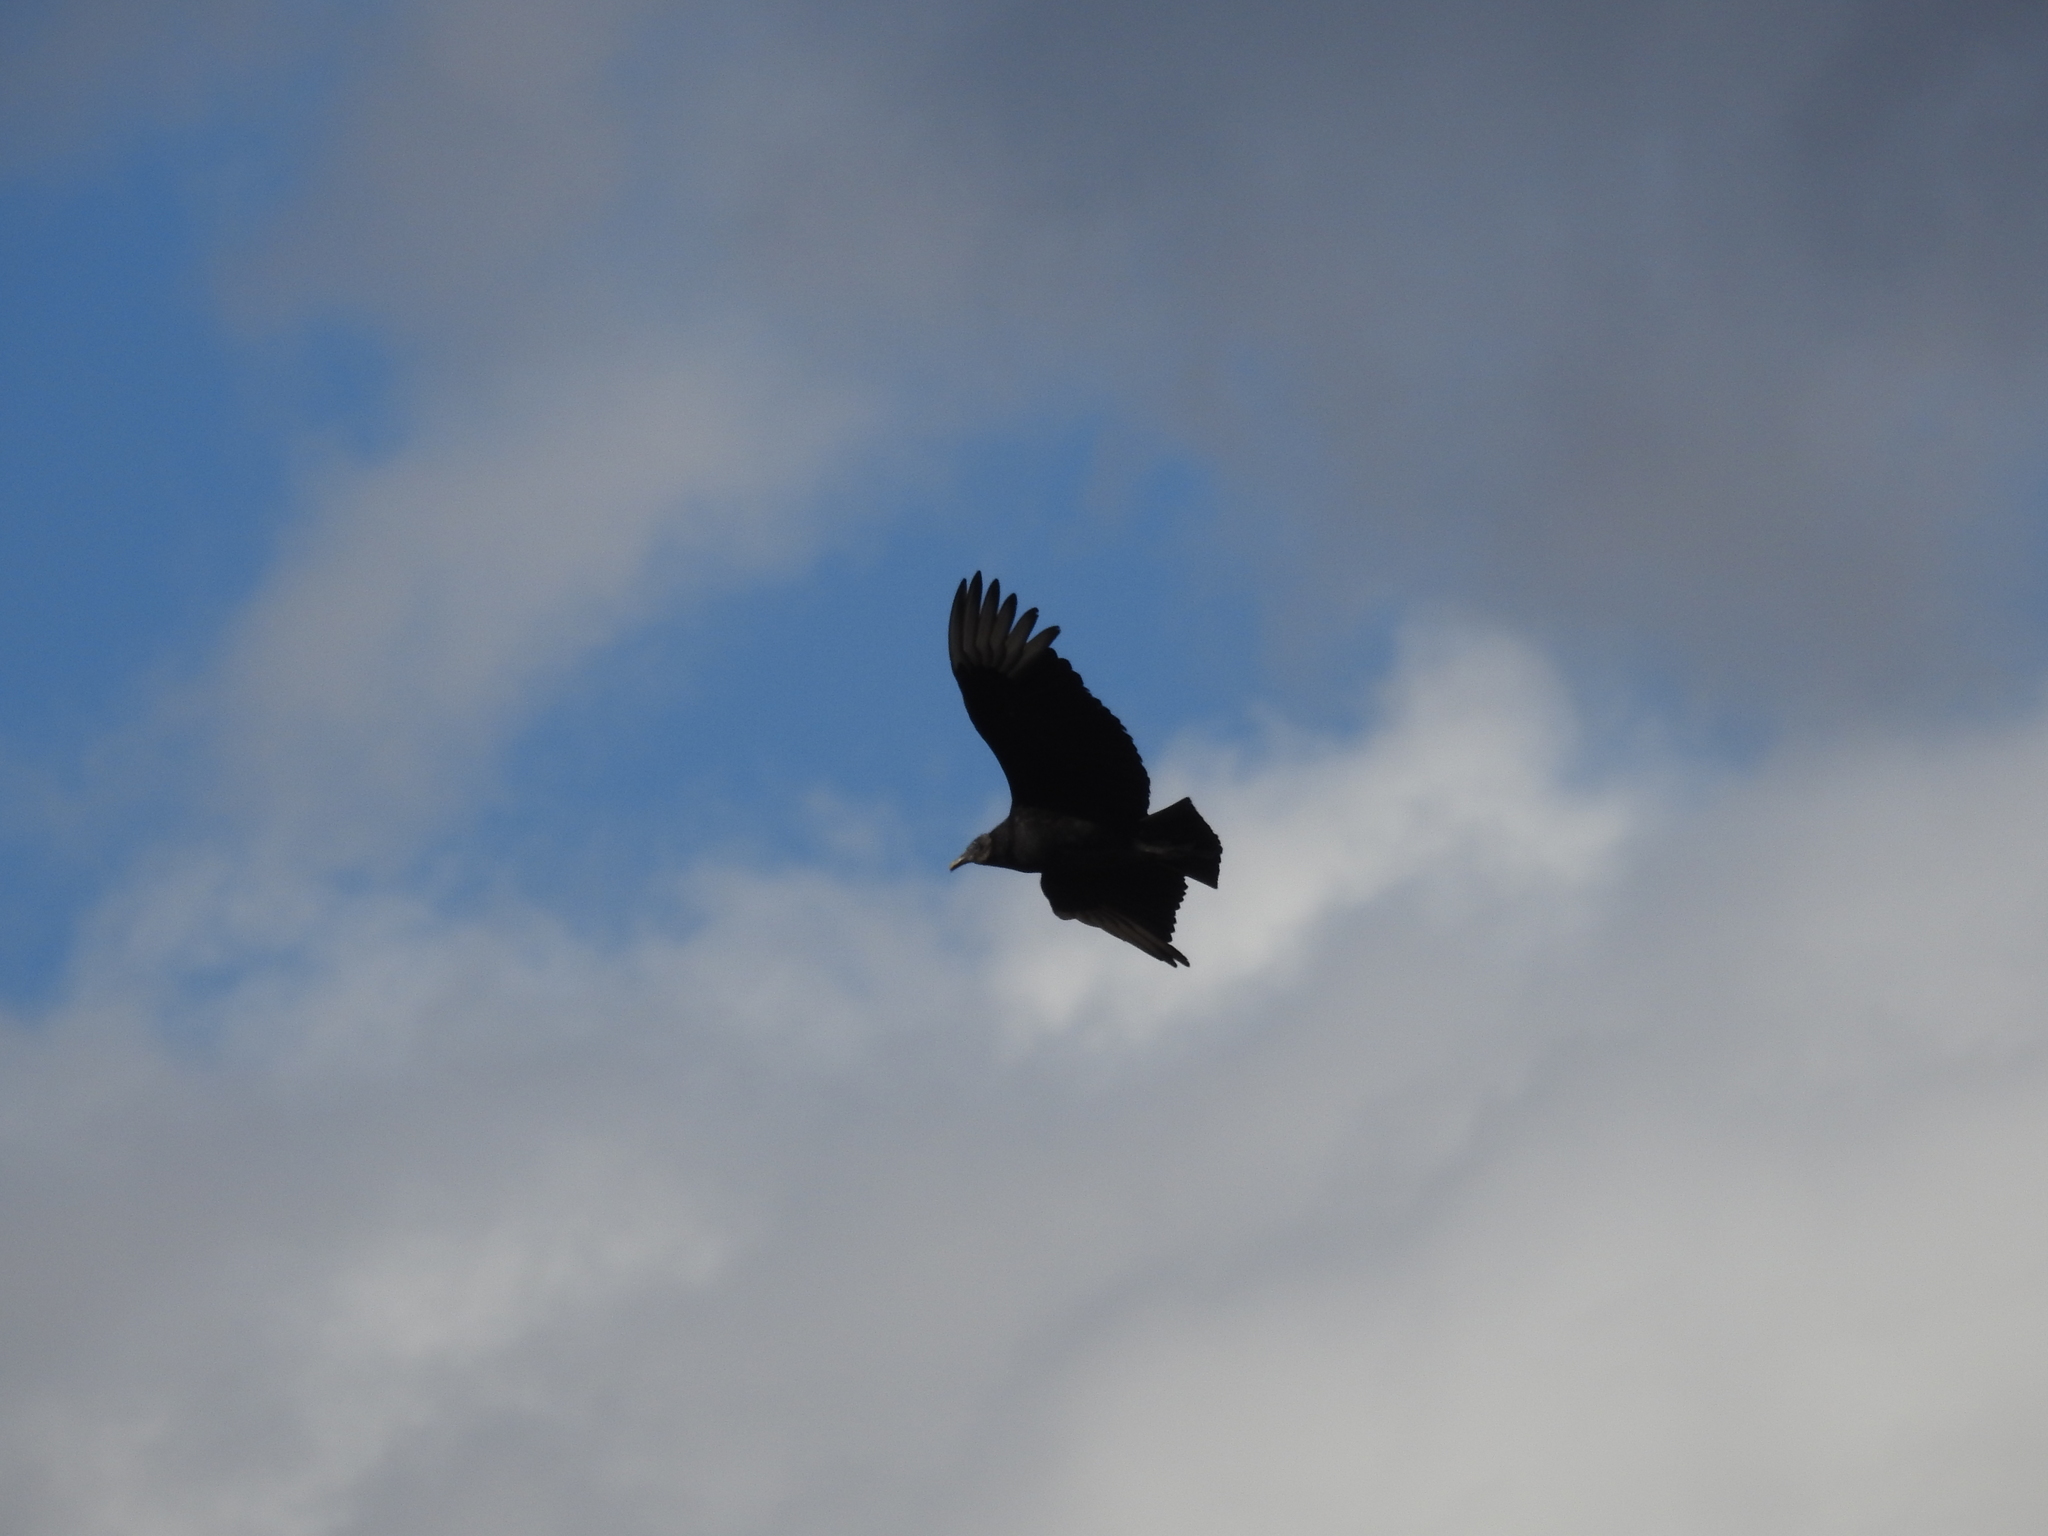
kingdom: Animalia
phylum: Chordata
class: Aves
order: Accipitriformes
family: Cathartidae
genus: Coragyps
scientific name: Coragyps atratus
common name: Black vulture
